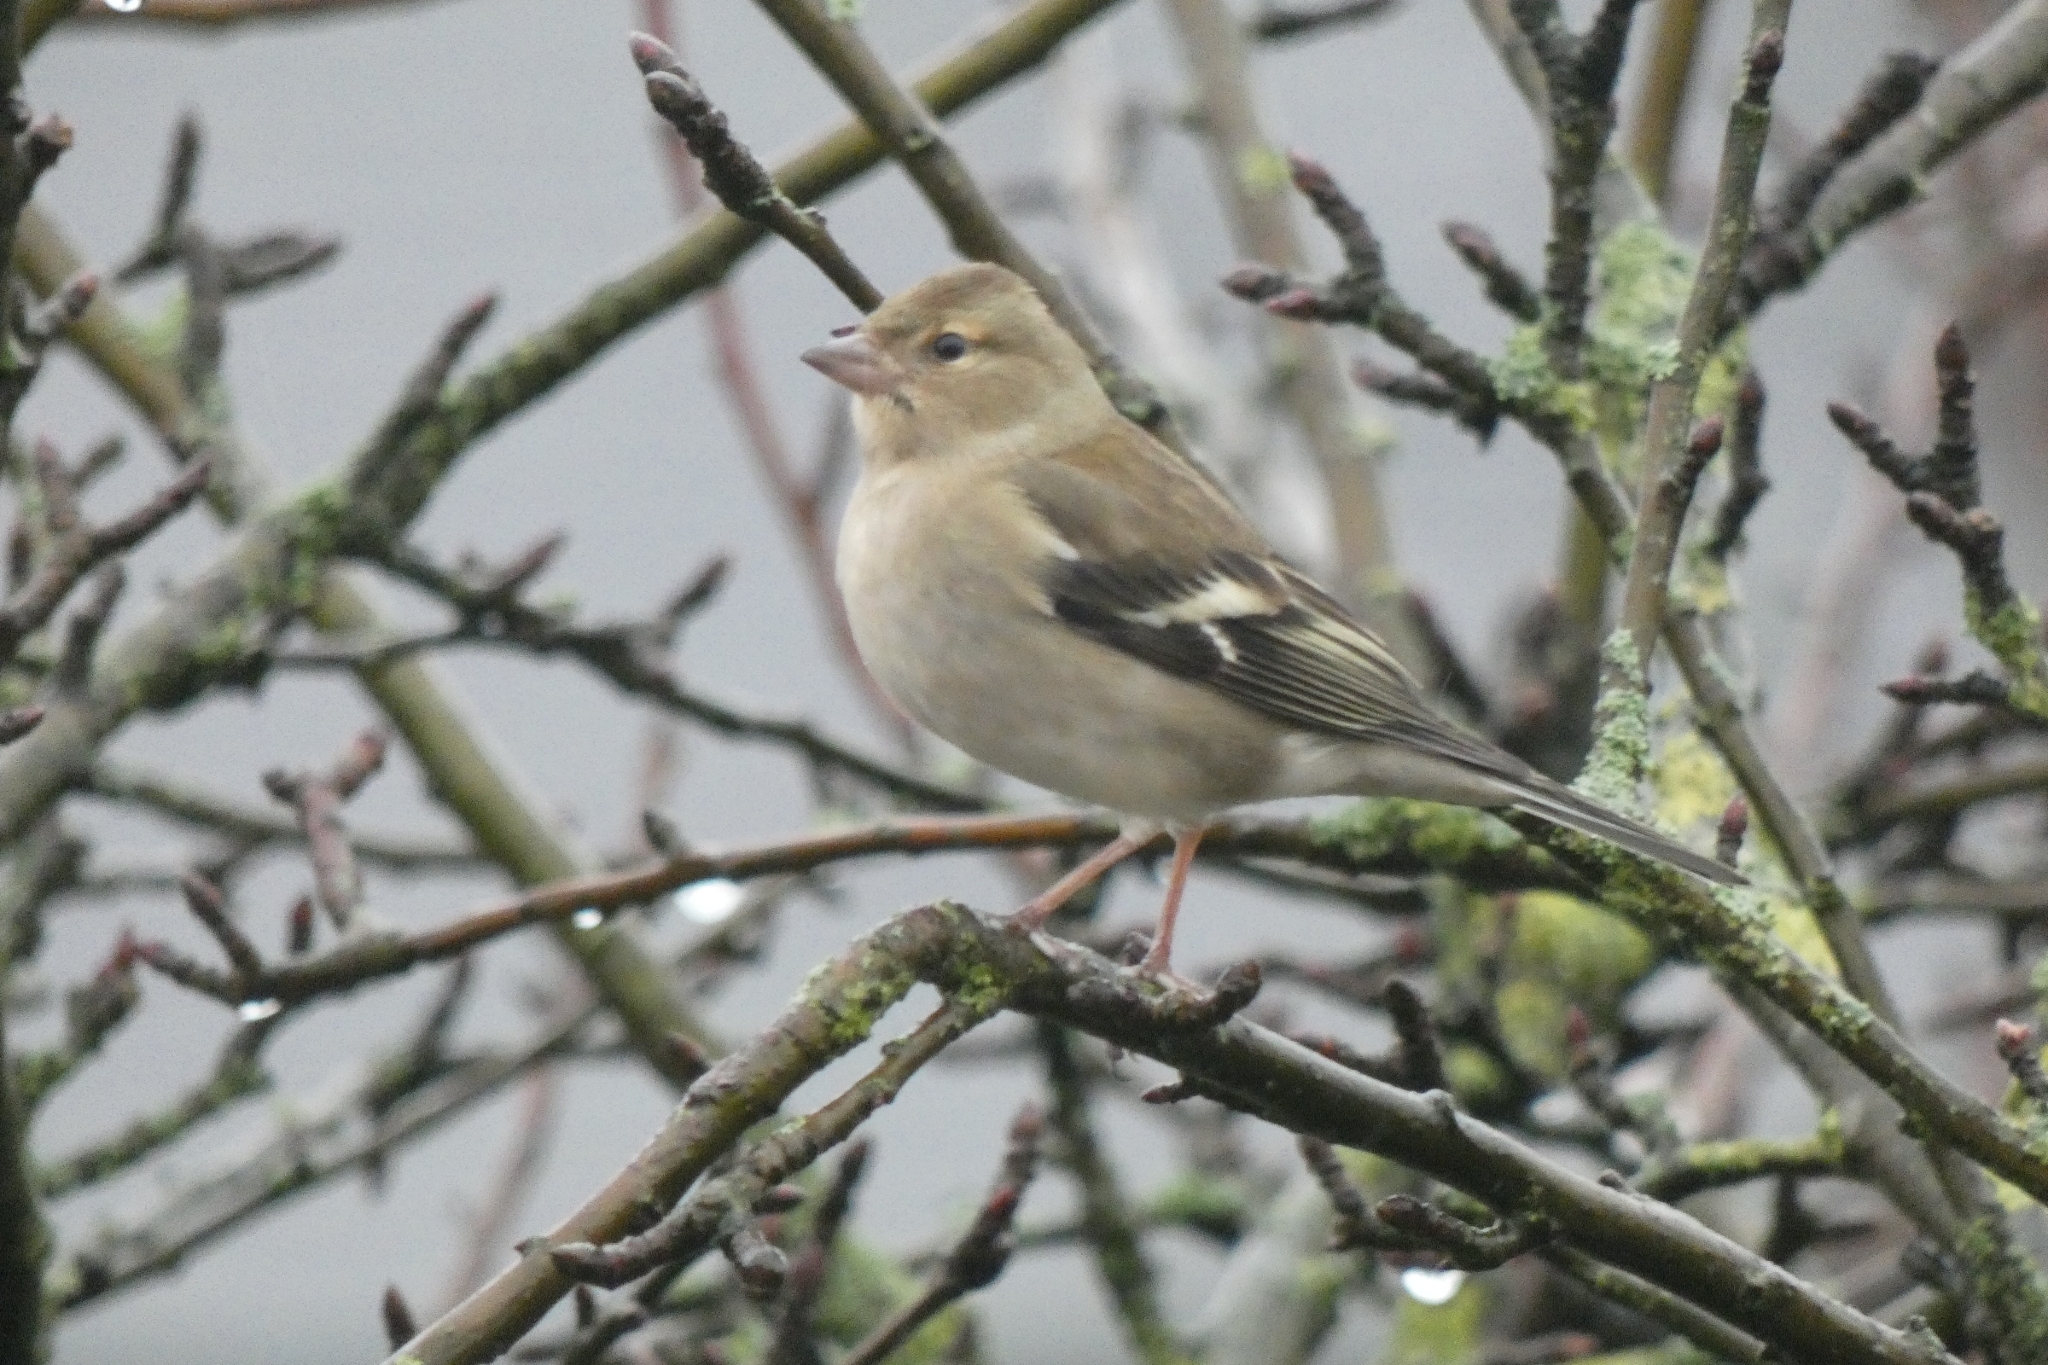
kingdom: Animalia
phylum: Chordata
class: Aves
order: Passeriformes
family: Fringillidae
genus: Fringilla
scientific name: Fringilla coelebs
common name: Common chaffinch
